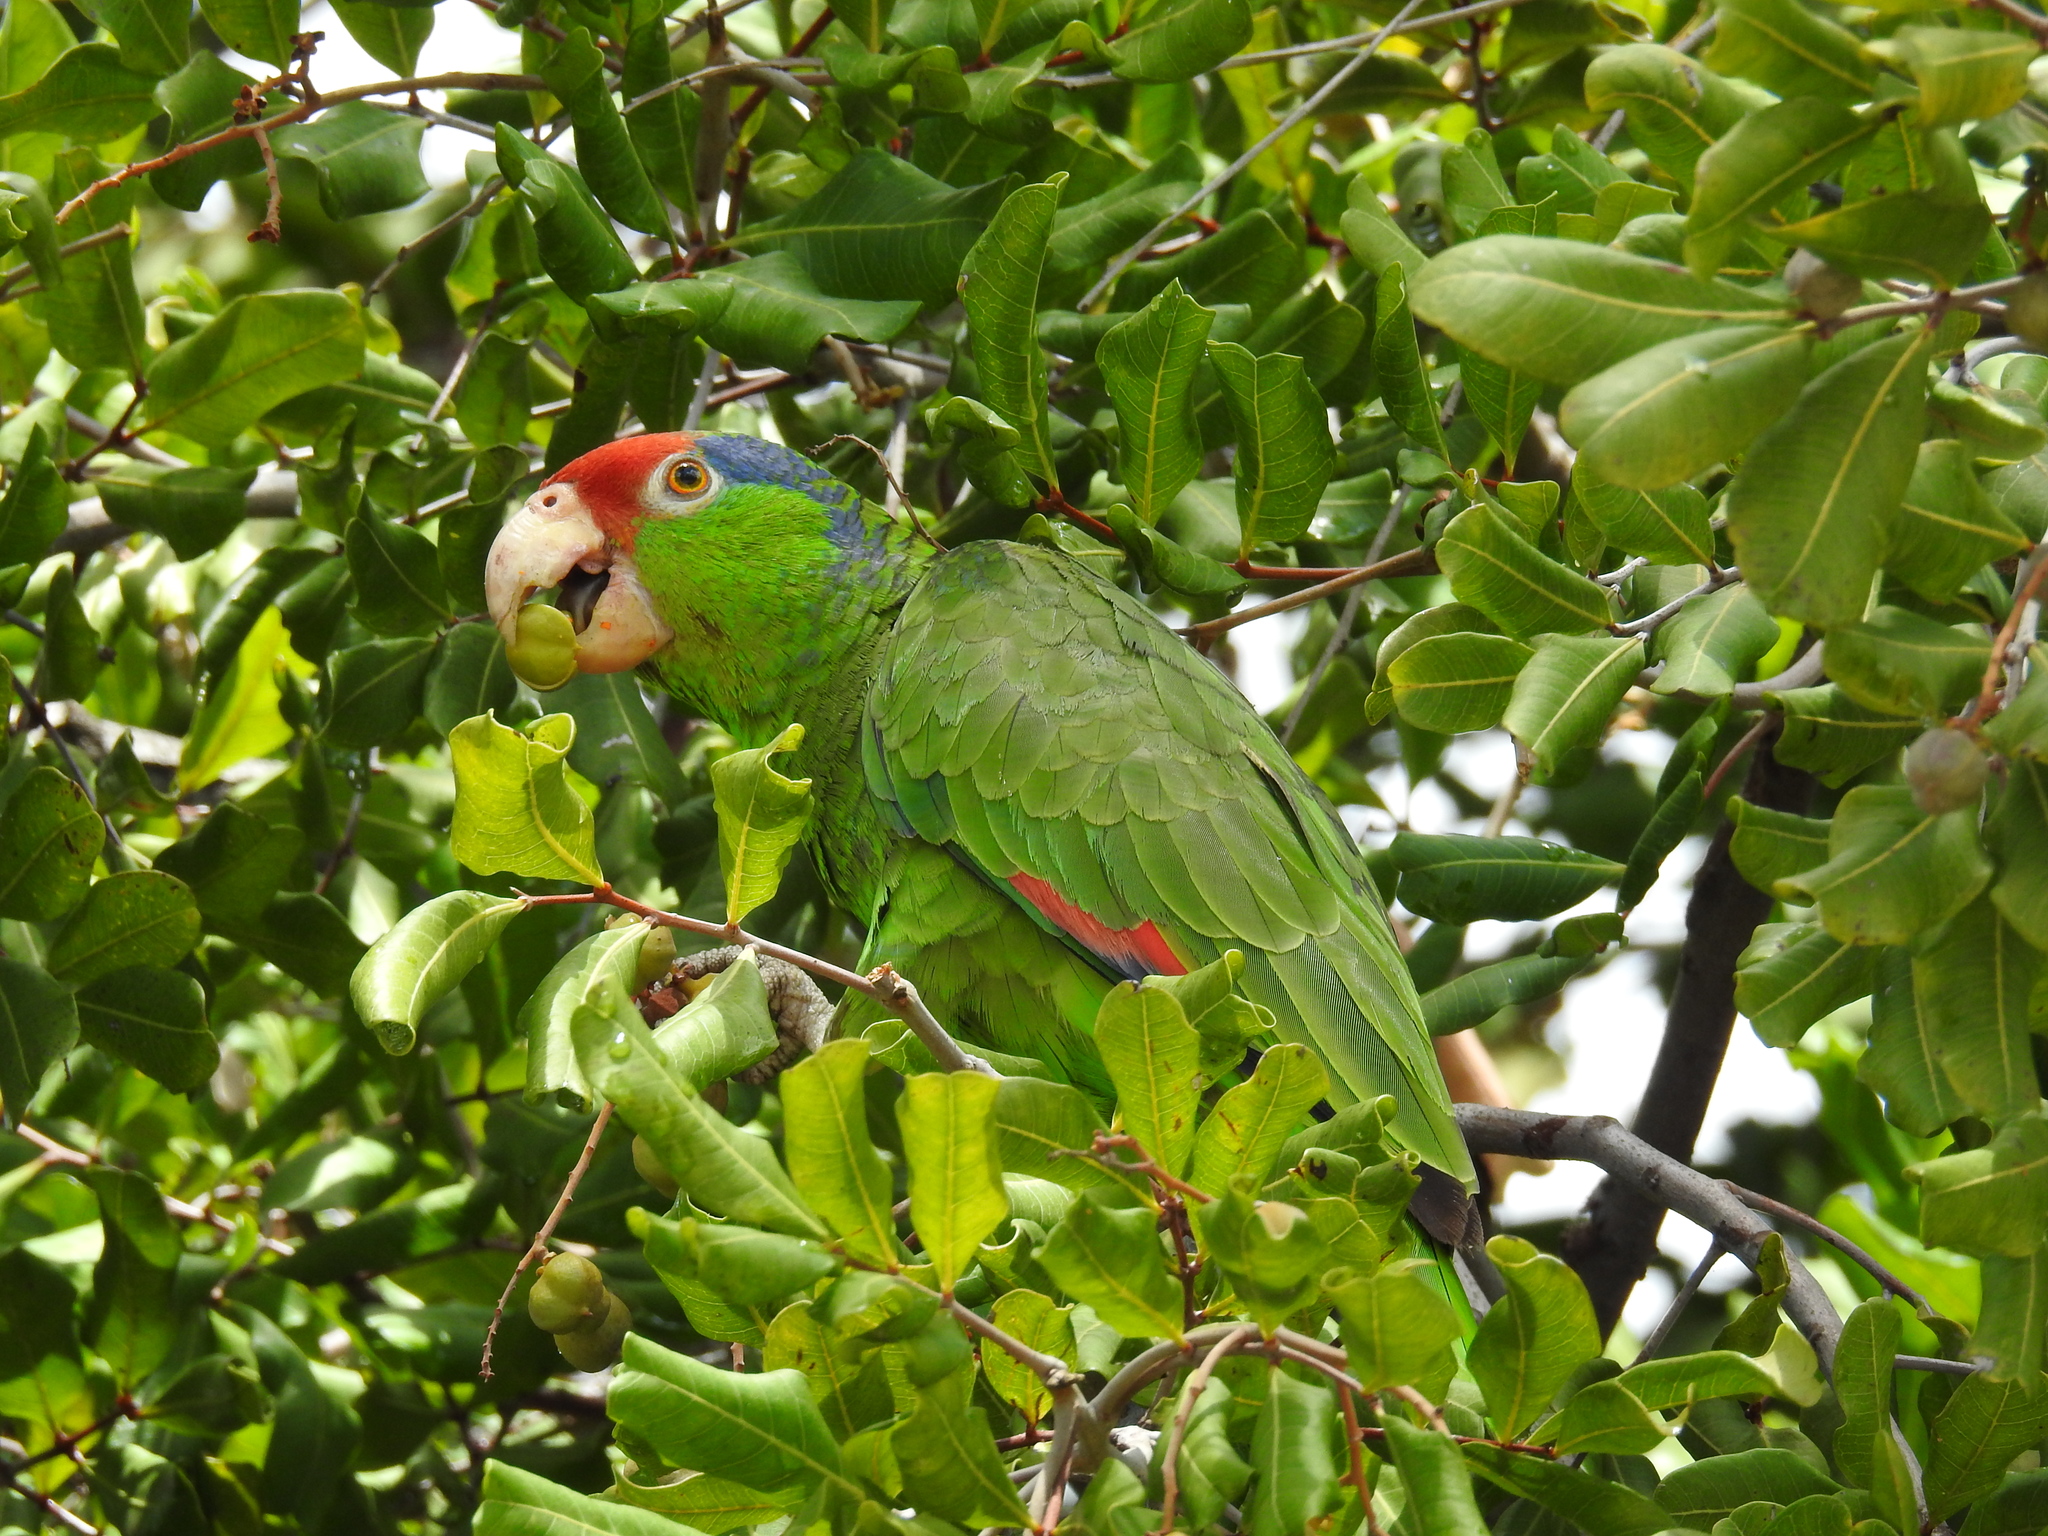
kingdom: Animalia
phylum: Chordata
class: Aves
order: Psittaciformes
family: Psittacidae
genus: Amazona
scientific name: Amazona viridigenalis
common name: Red-crowned amazon
